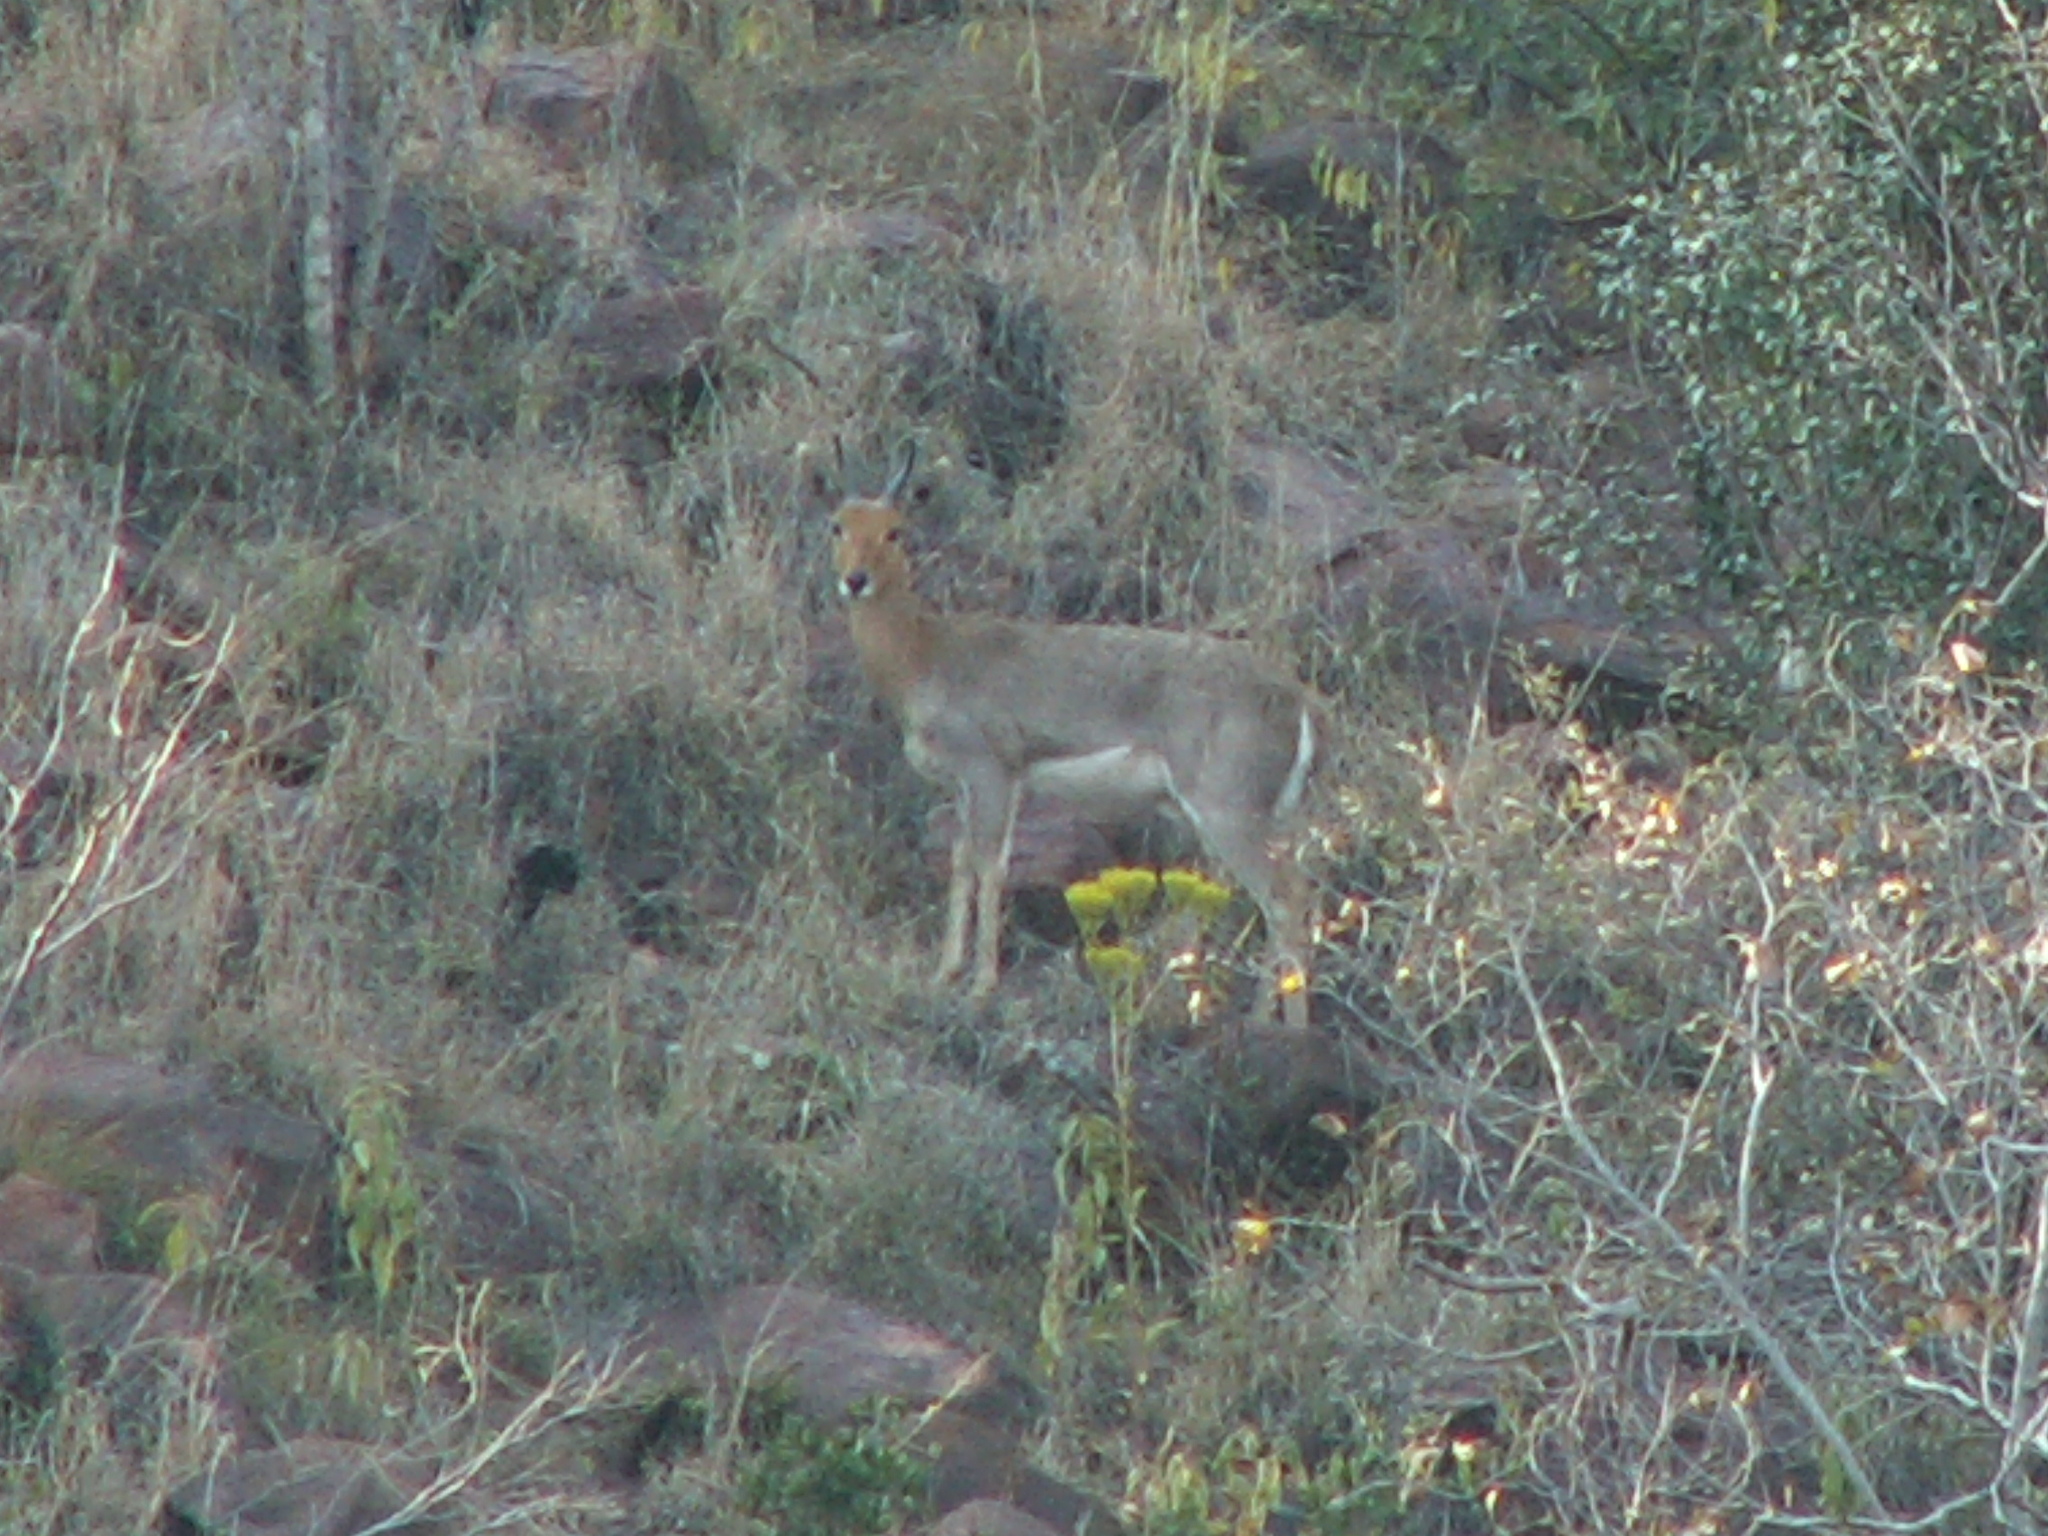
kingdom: Animalia
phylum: Chordata
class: Mammalia
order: Artiodactyla
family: Bovidae
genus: Redunca
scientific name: Redunca fulvorufula
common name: Mountain reedbuck
